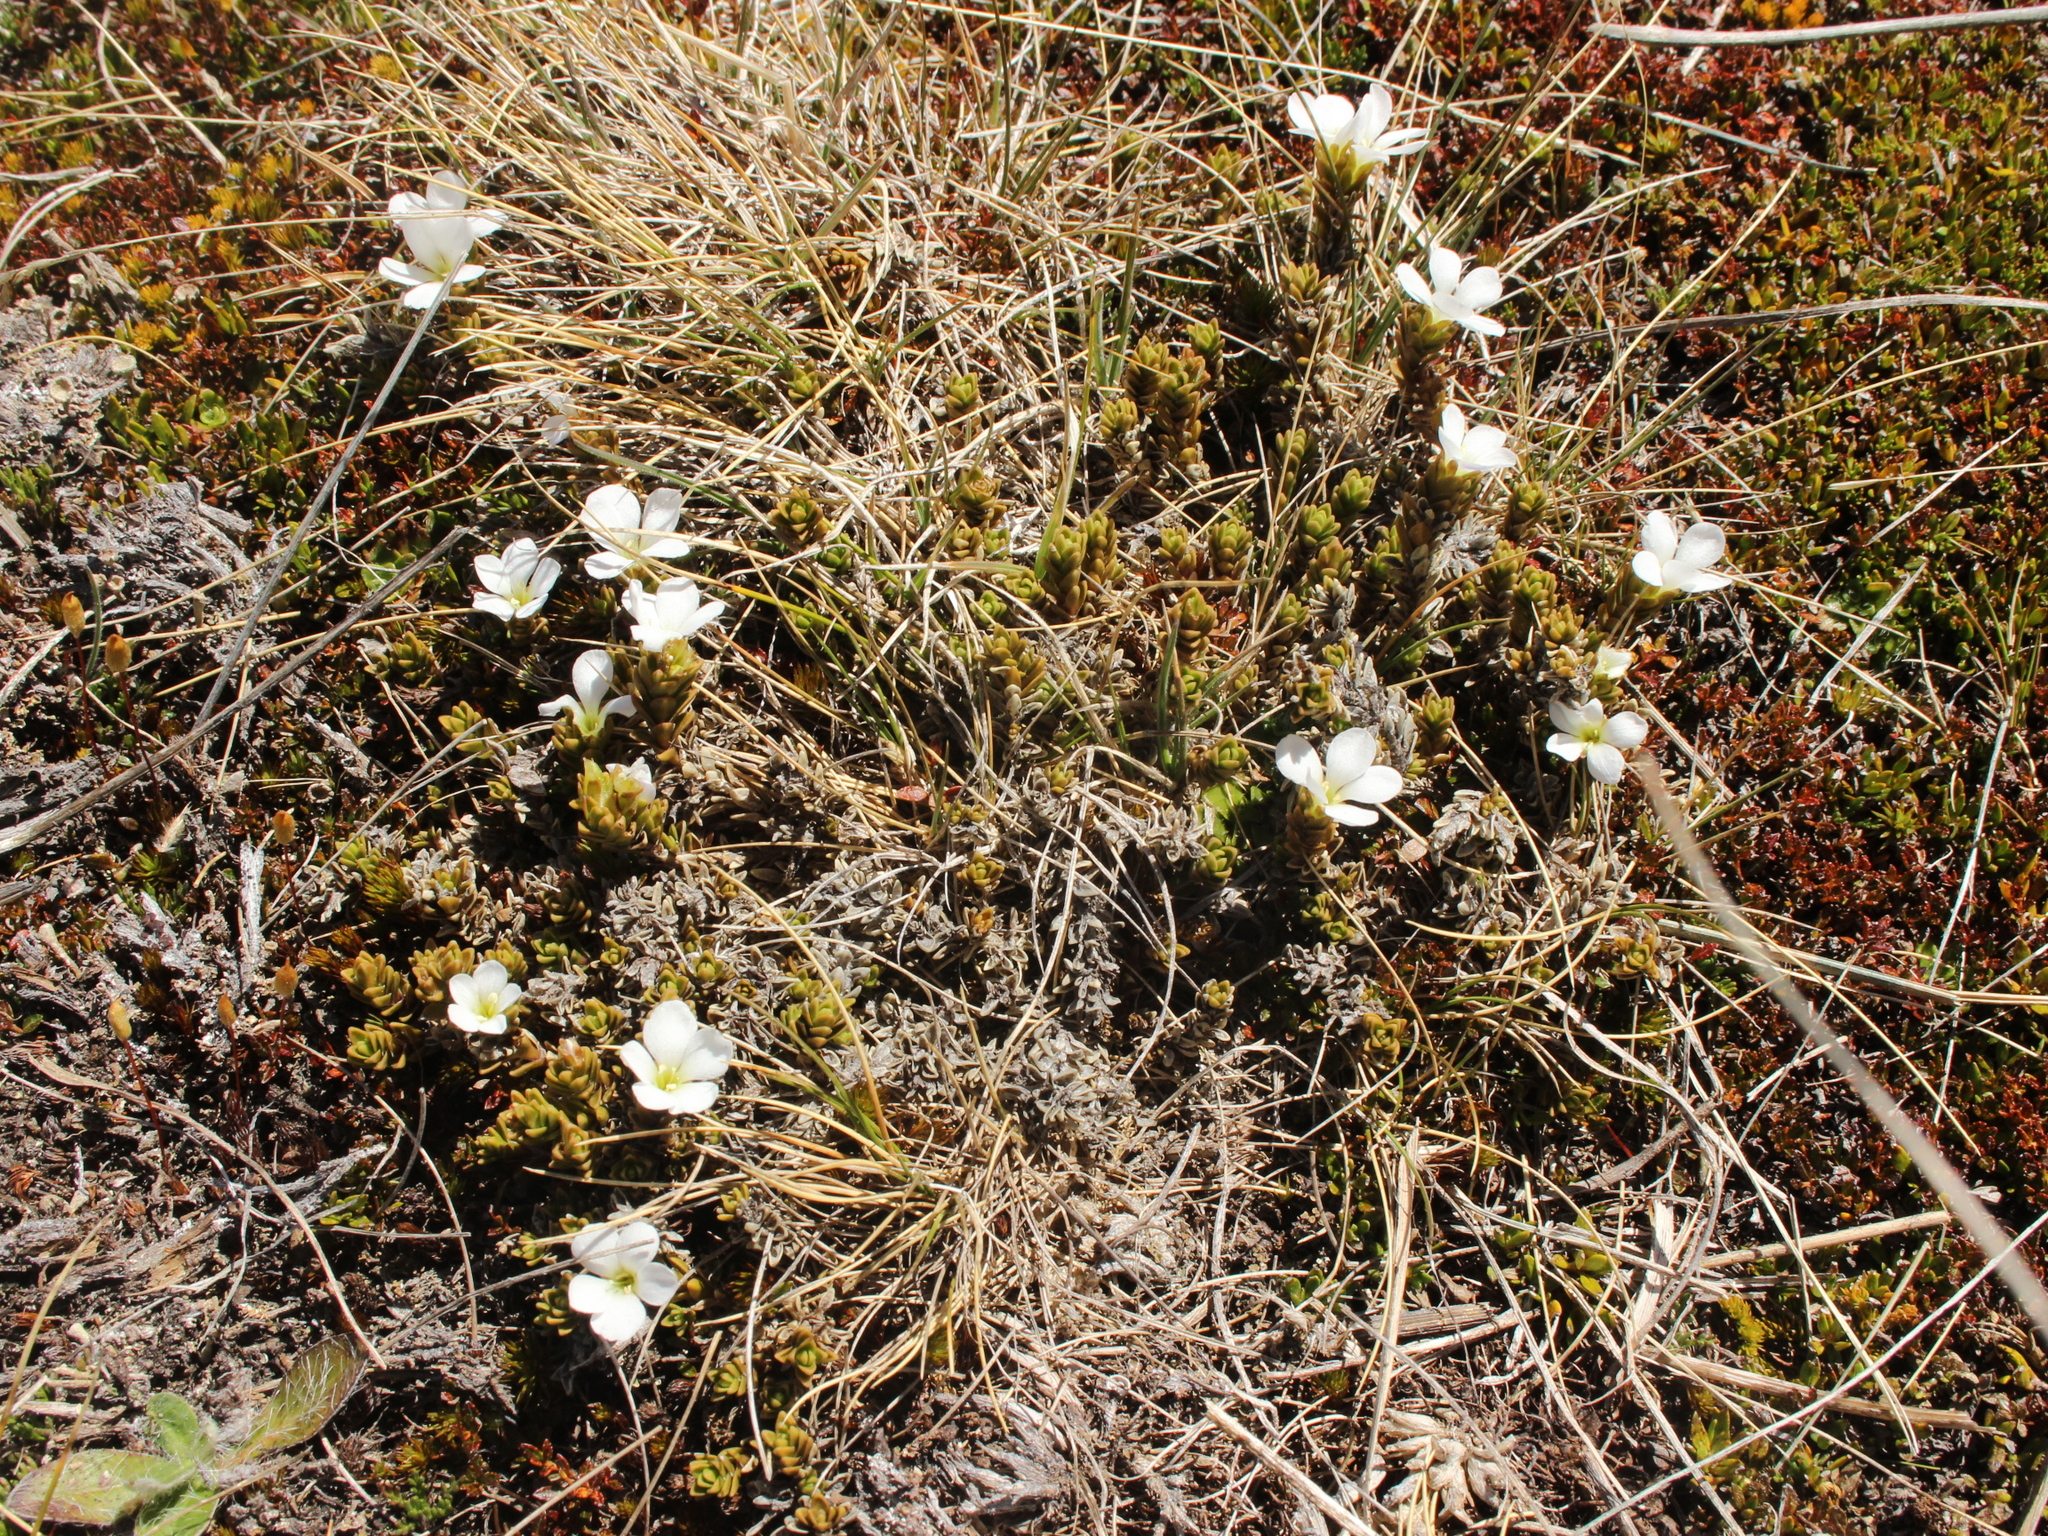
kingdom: Plantae
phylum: Tracheophyta
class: Magnoliopsida
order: Lamiales
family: Plantaginaceae
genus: Veronica
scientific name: Veronica densifolia
